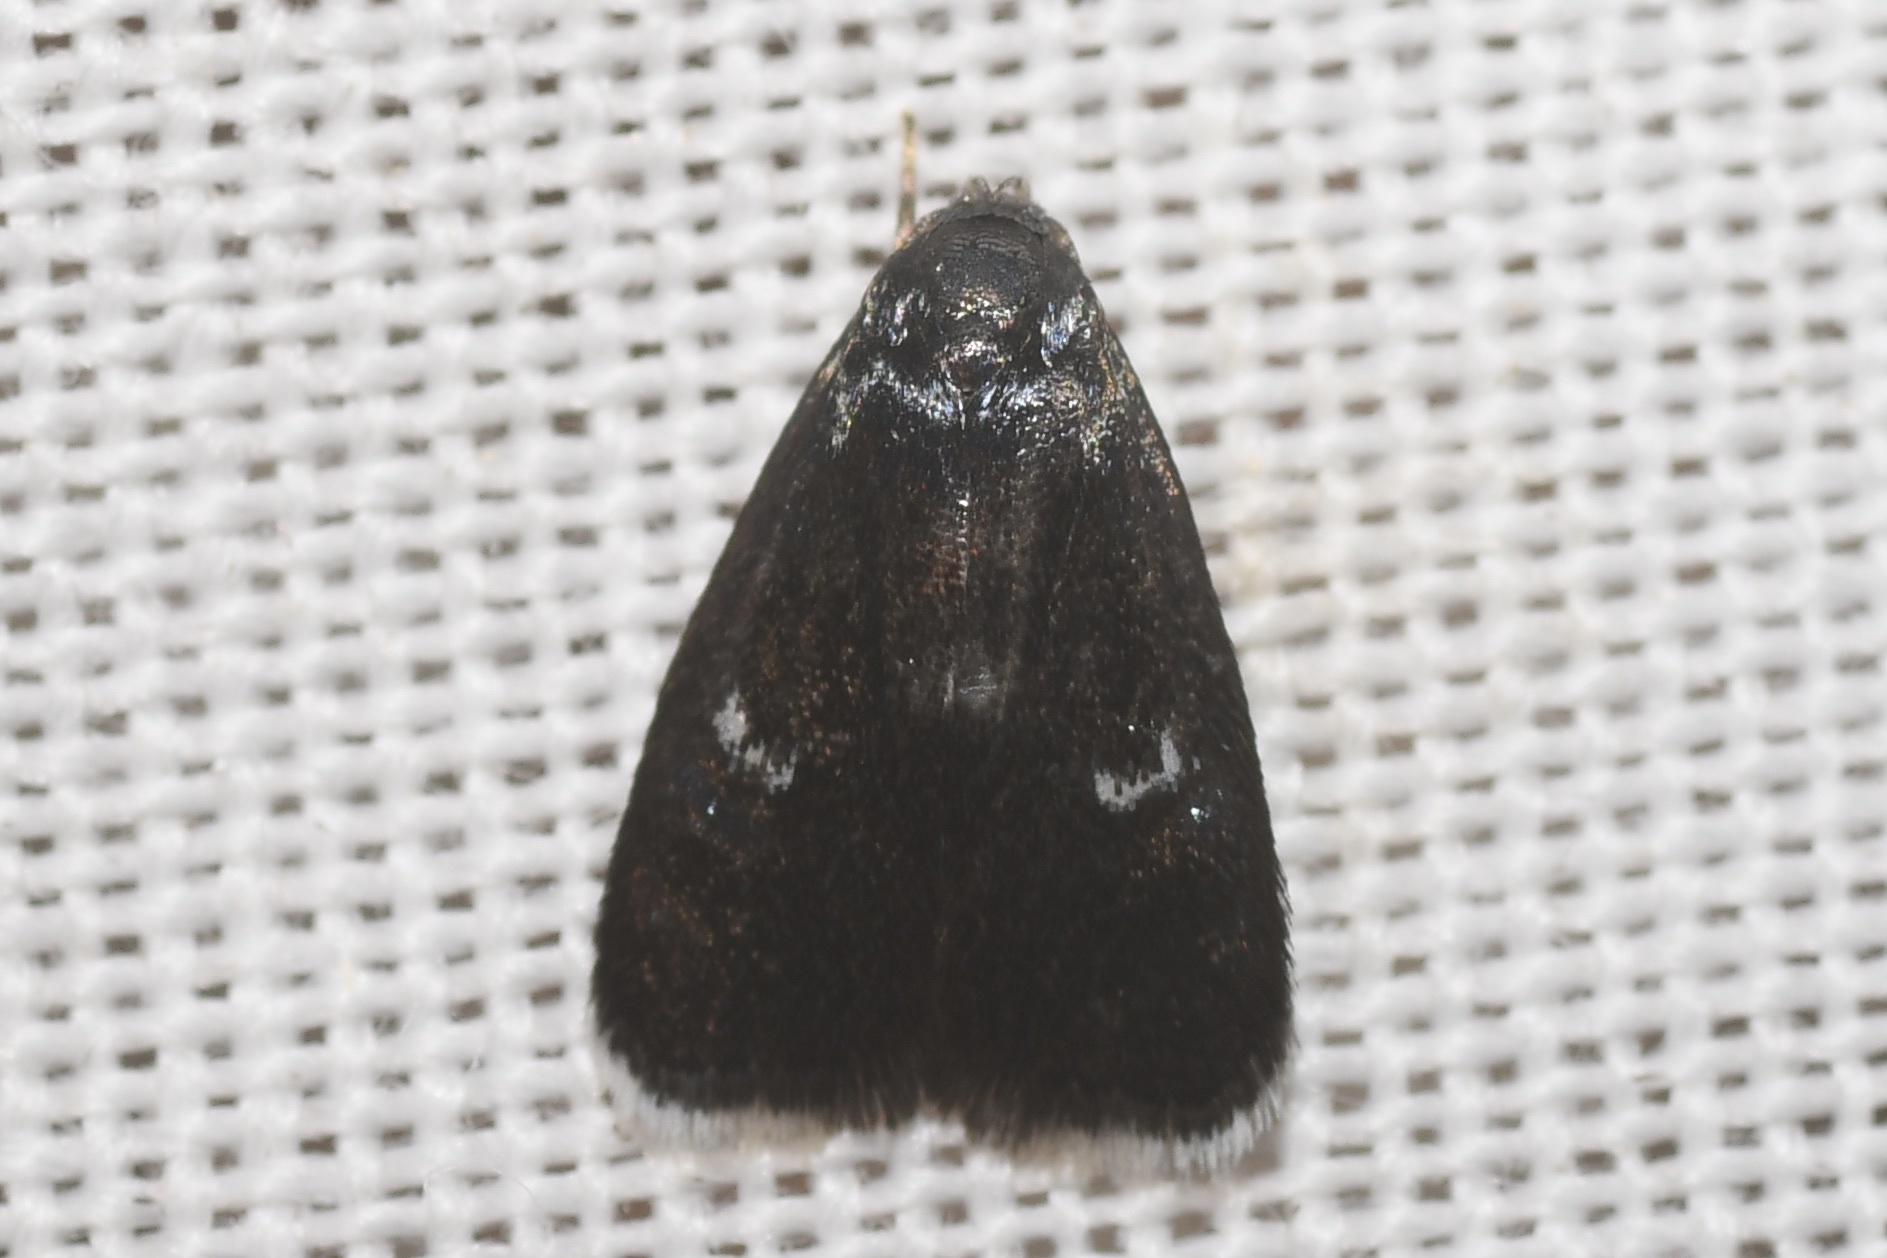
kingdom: Animalia
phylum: Arthropoda
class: Insecta
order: Lepidoptera
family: Depressariidae
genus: Menesta
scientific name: Menesta tortriciformella
